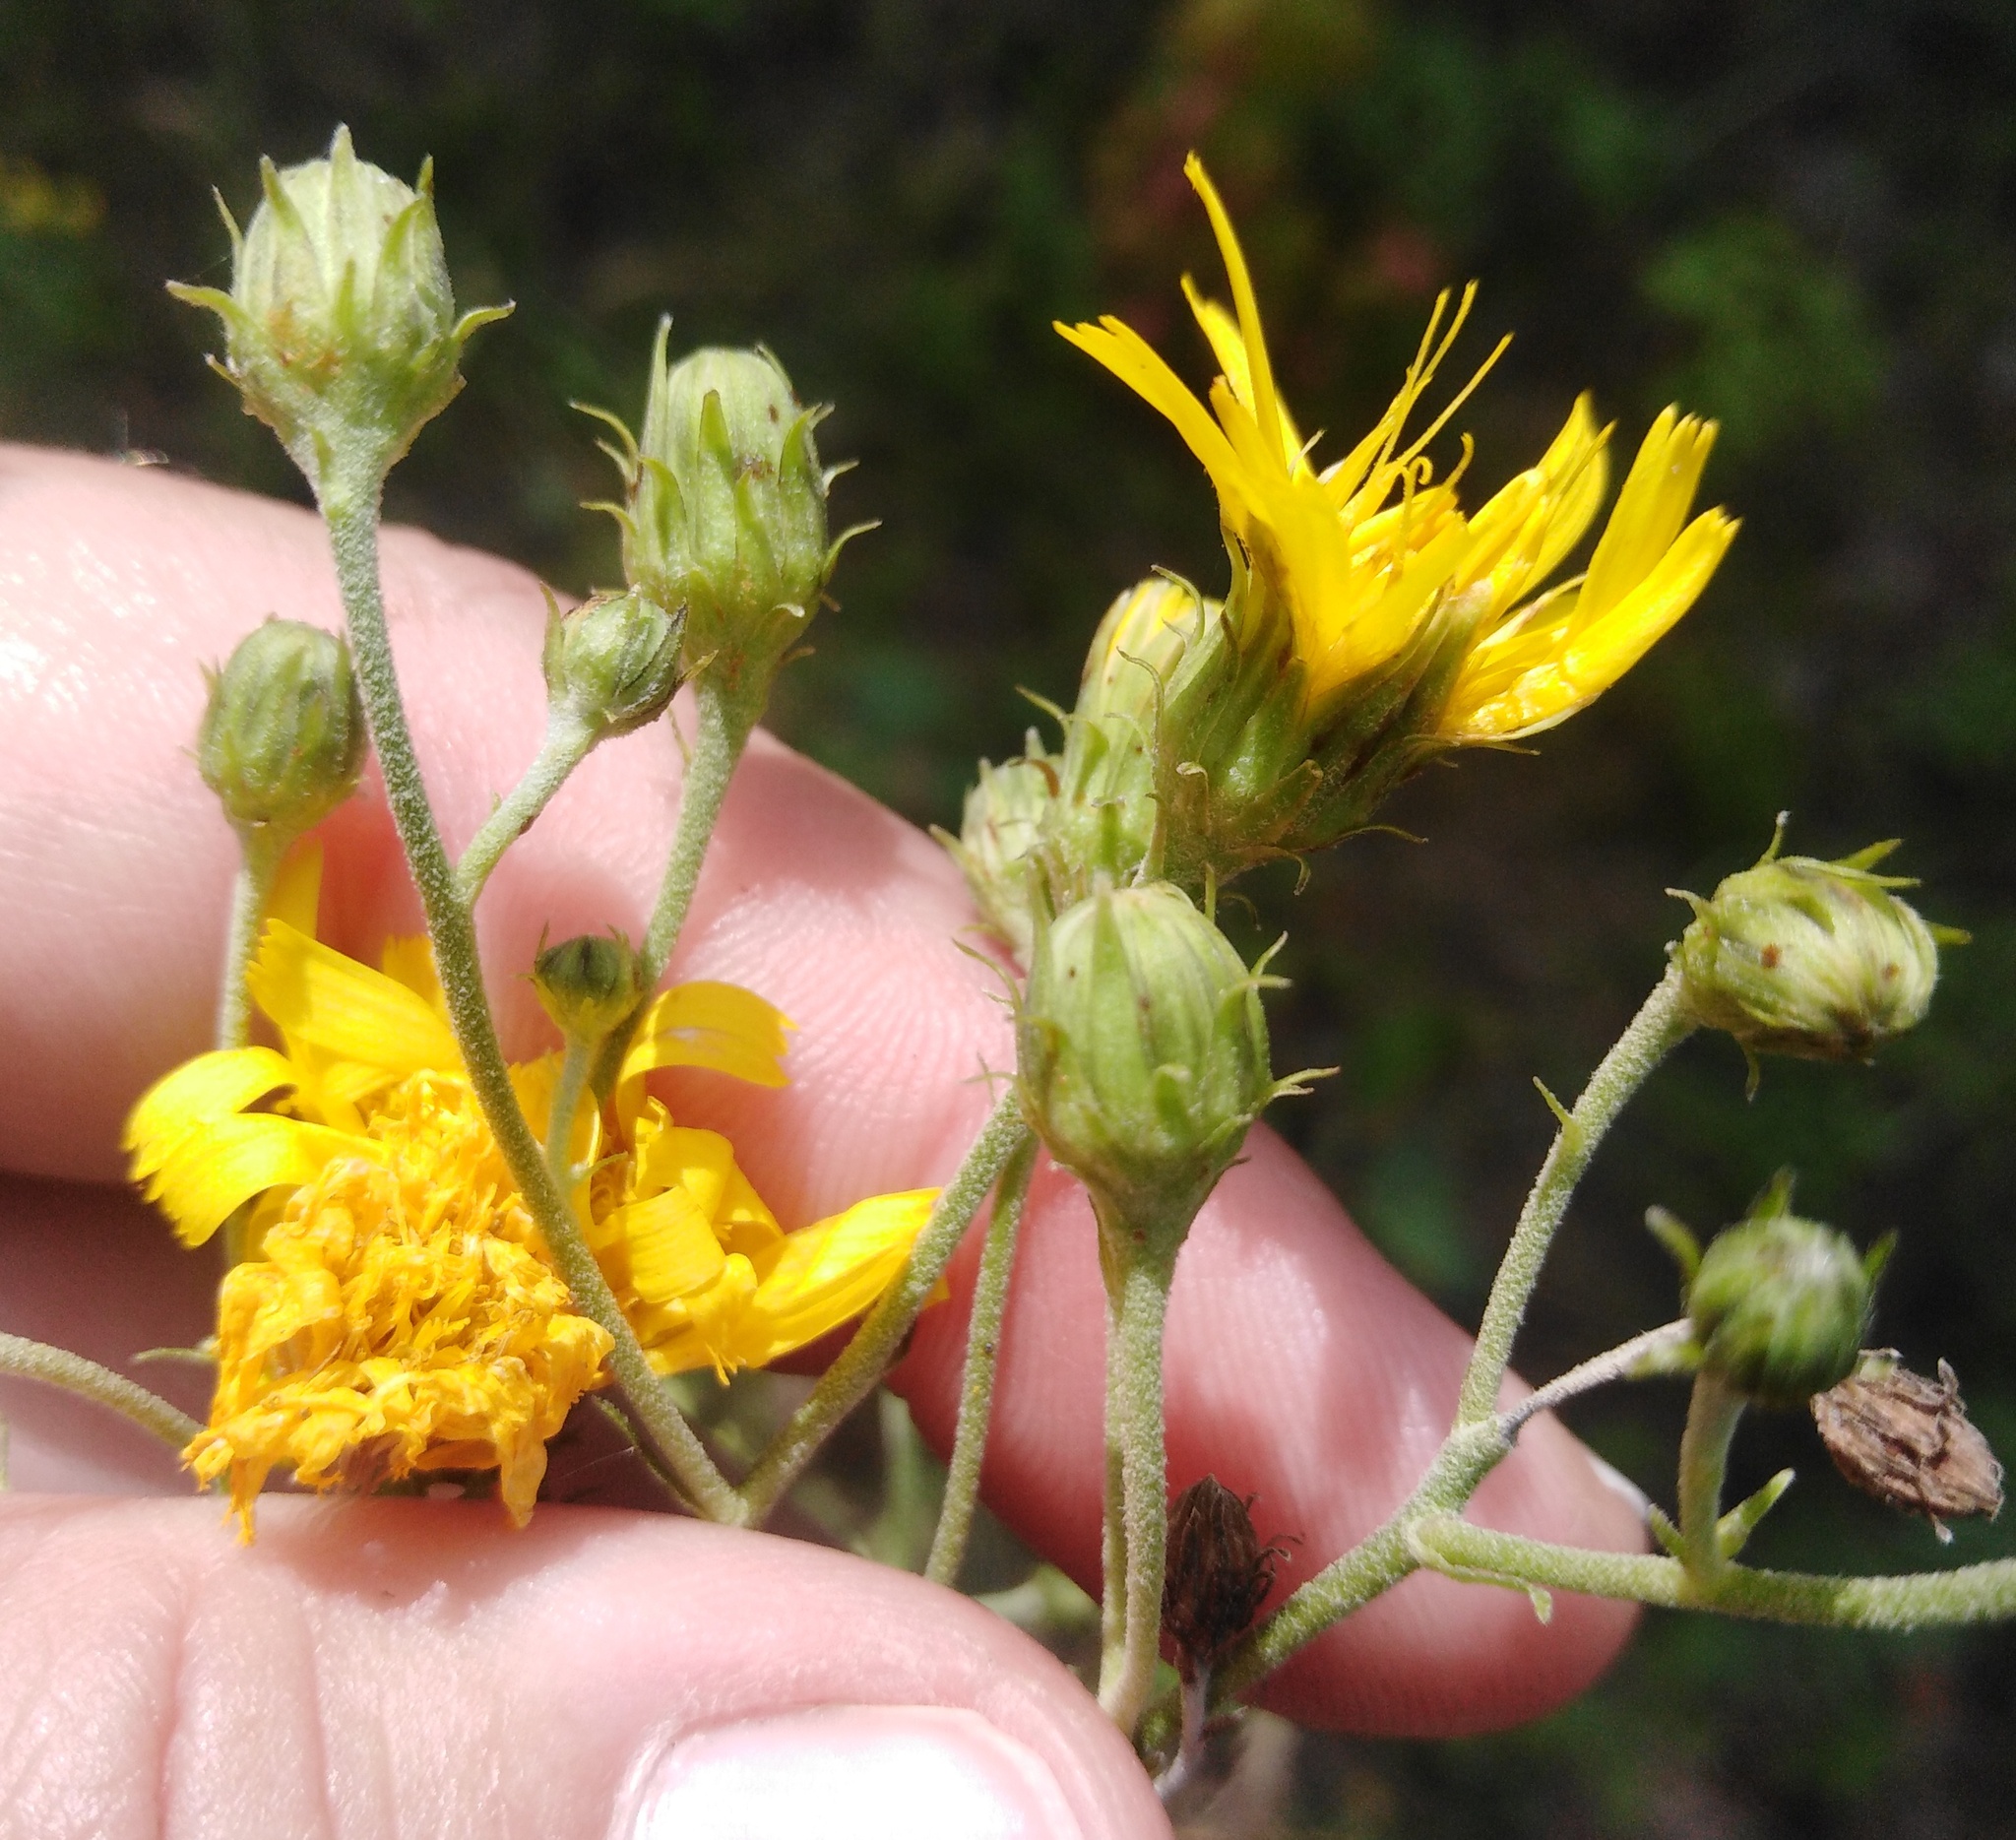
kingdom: Plantae
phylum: Tracheophyta
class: Magnoliopsida
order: Asterales
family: Asteraceae
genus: Hieracium
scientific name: Hieracium umbellatum
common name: Northern hawkweed
